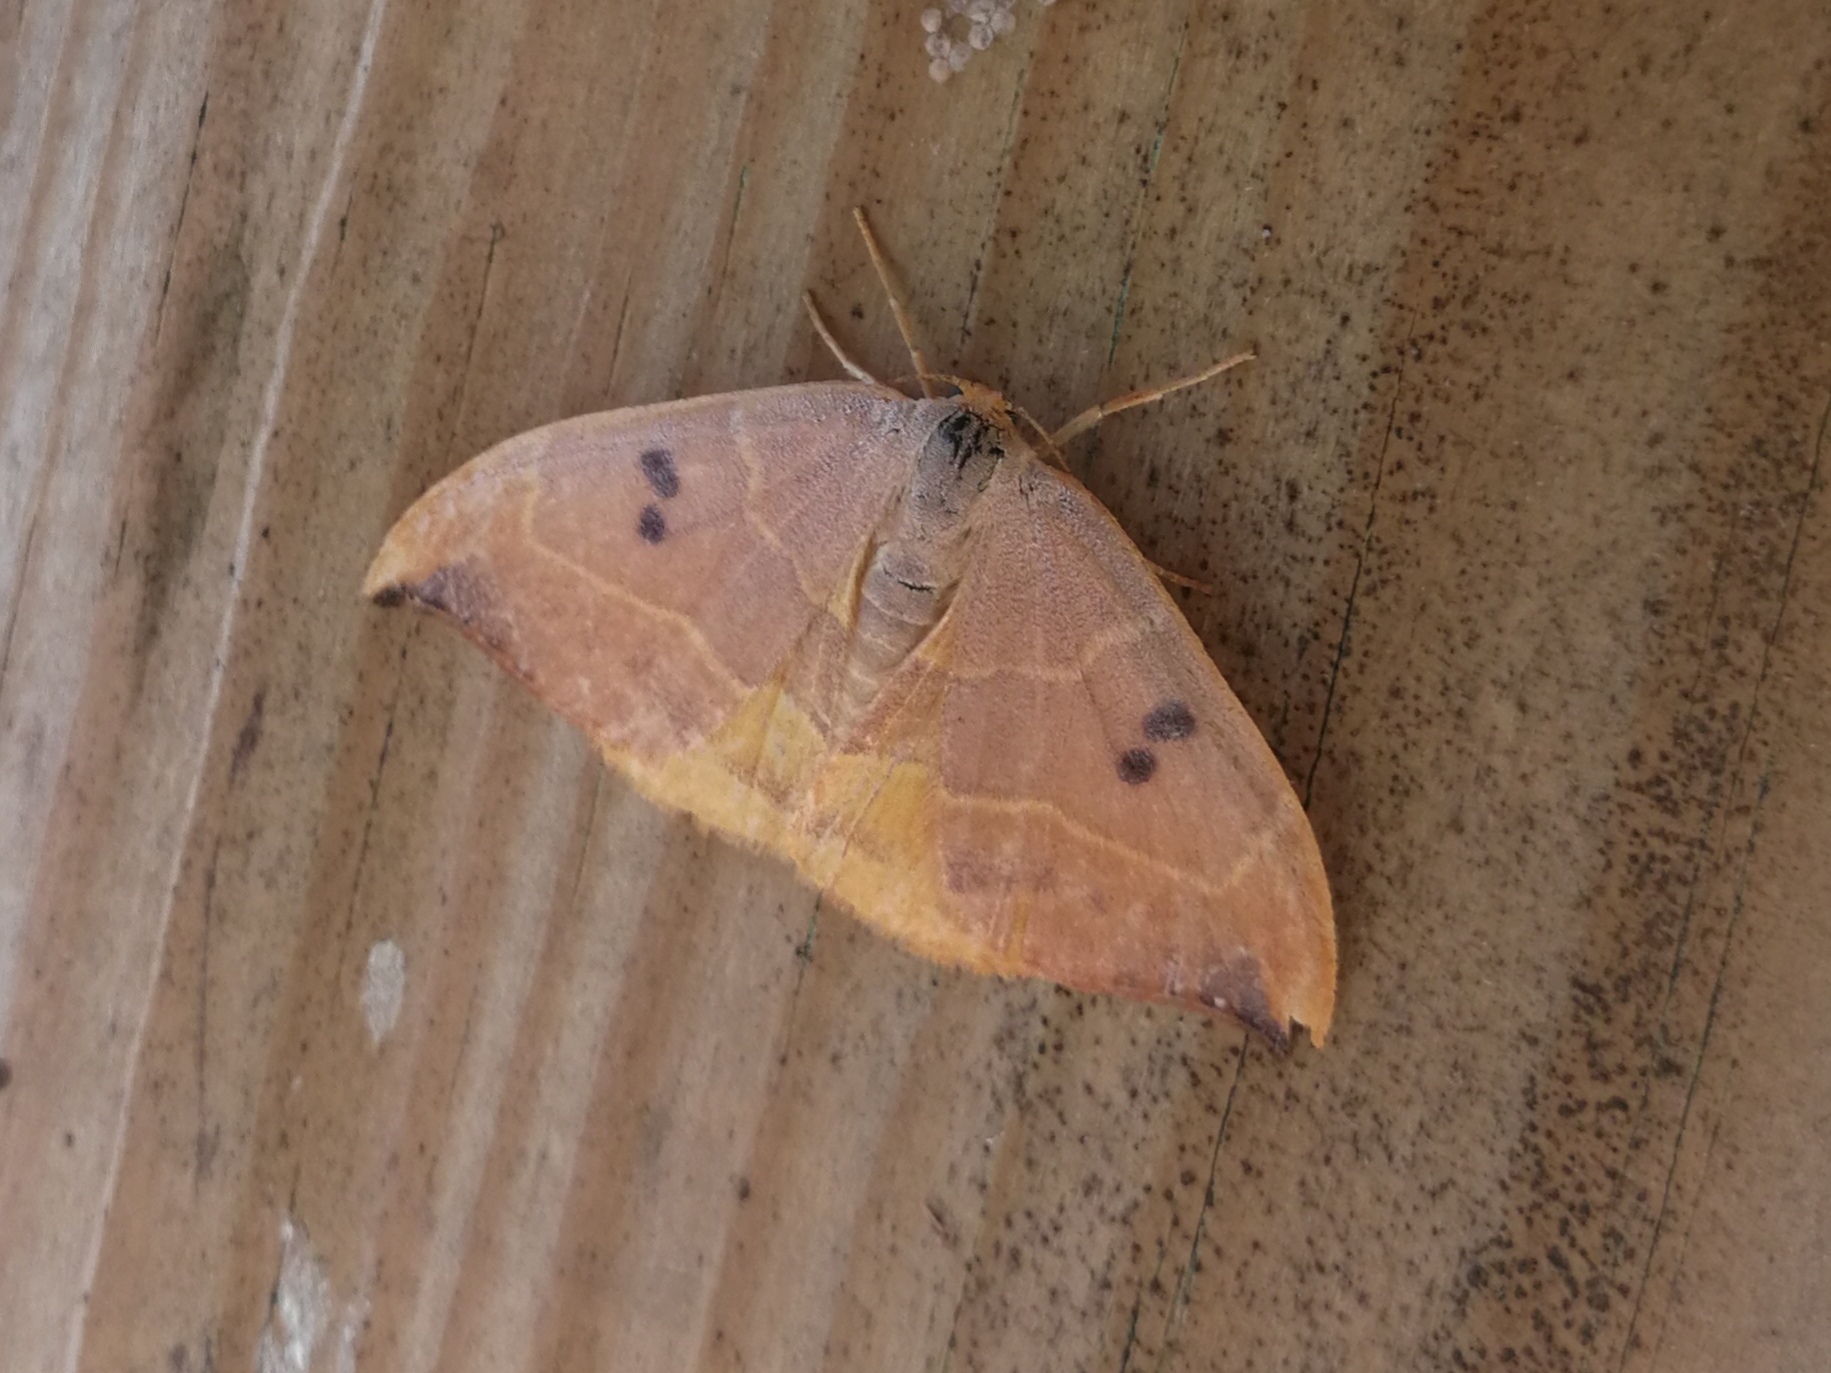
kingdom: Animalia
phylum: Arthropoda
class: Insecta
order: Lepidoptera
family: Drepanidae
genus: Watsonalla
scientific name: Watsonalla binaria
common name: Oak hook-tip
